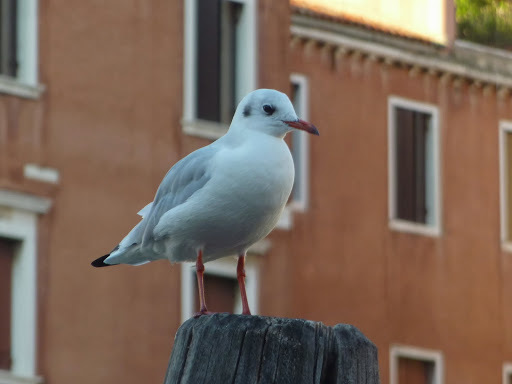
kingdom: Animalia
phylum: Chordata
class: Aves
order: Charadriiformes
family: Laridae
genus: Chroicocephalus
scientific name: Chroicocephalus ridibundus
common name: Black-headed gull
